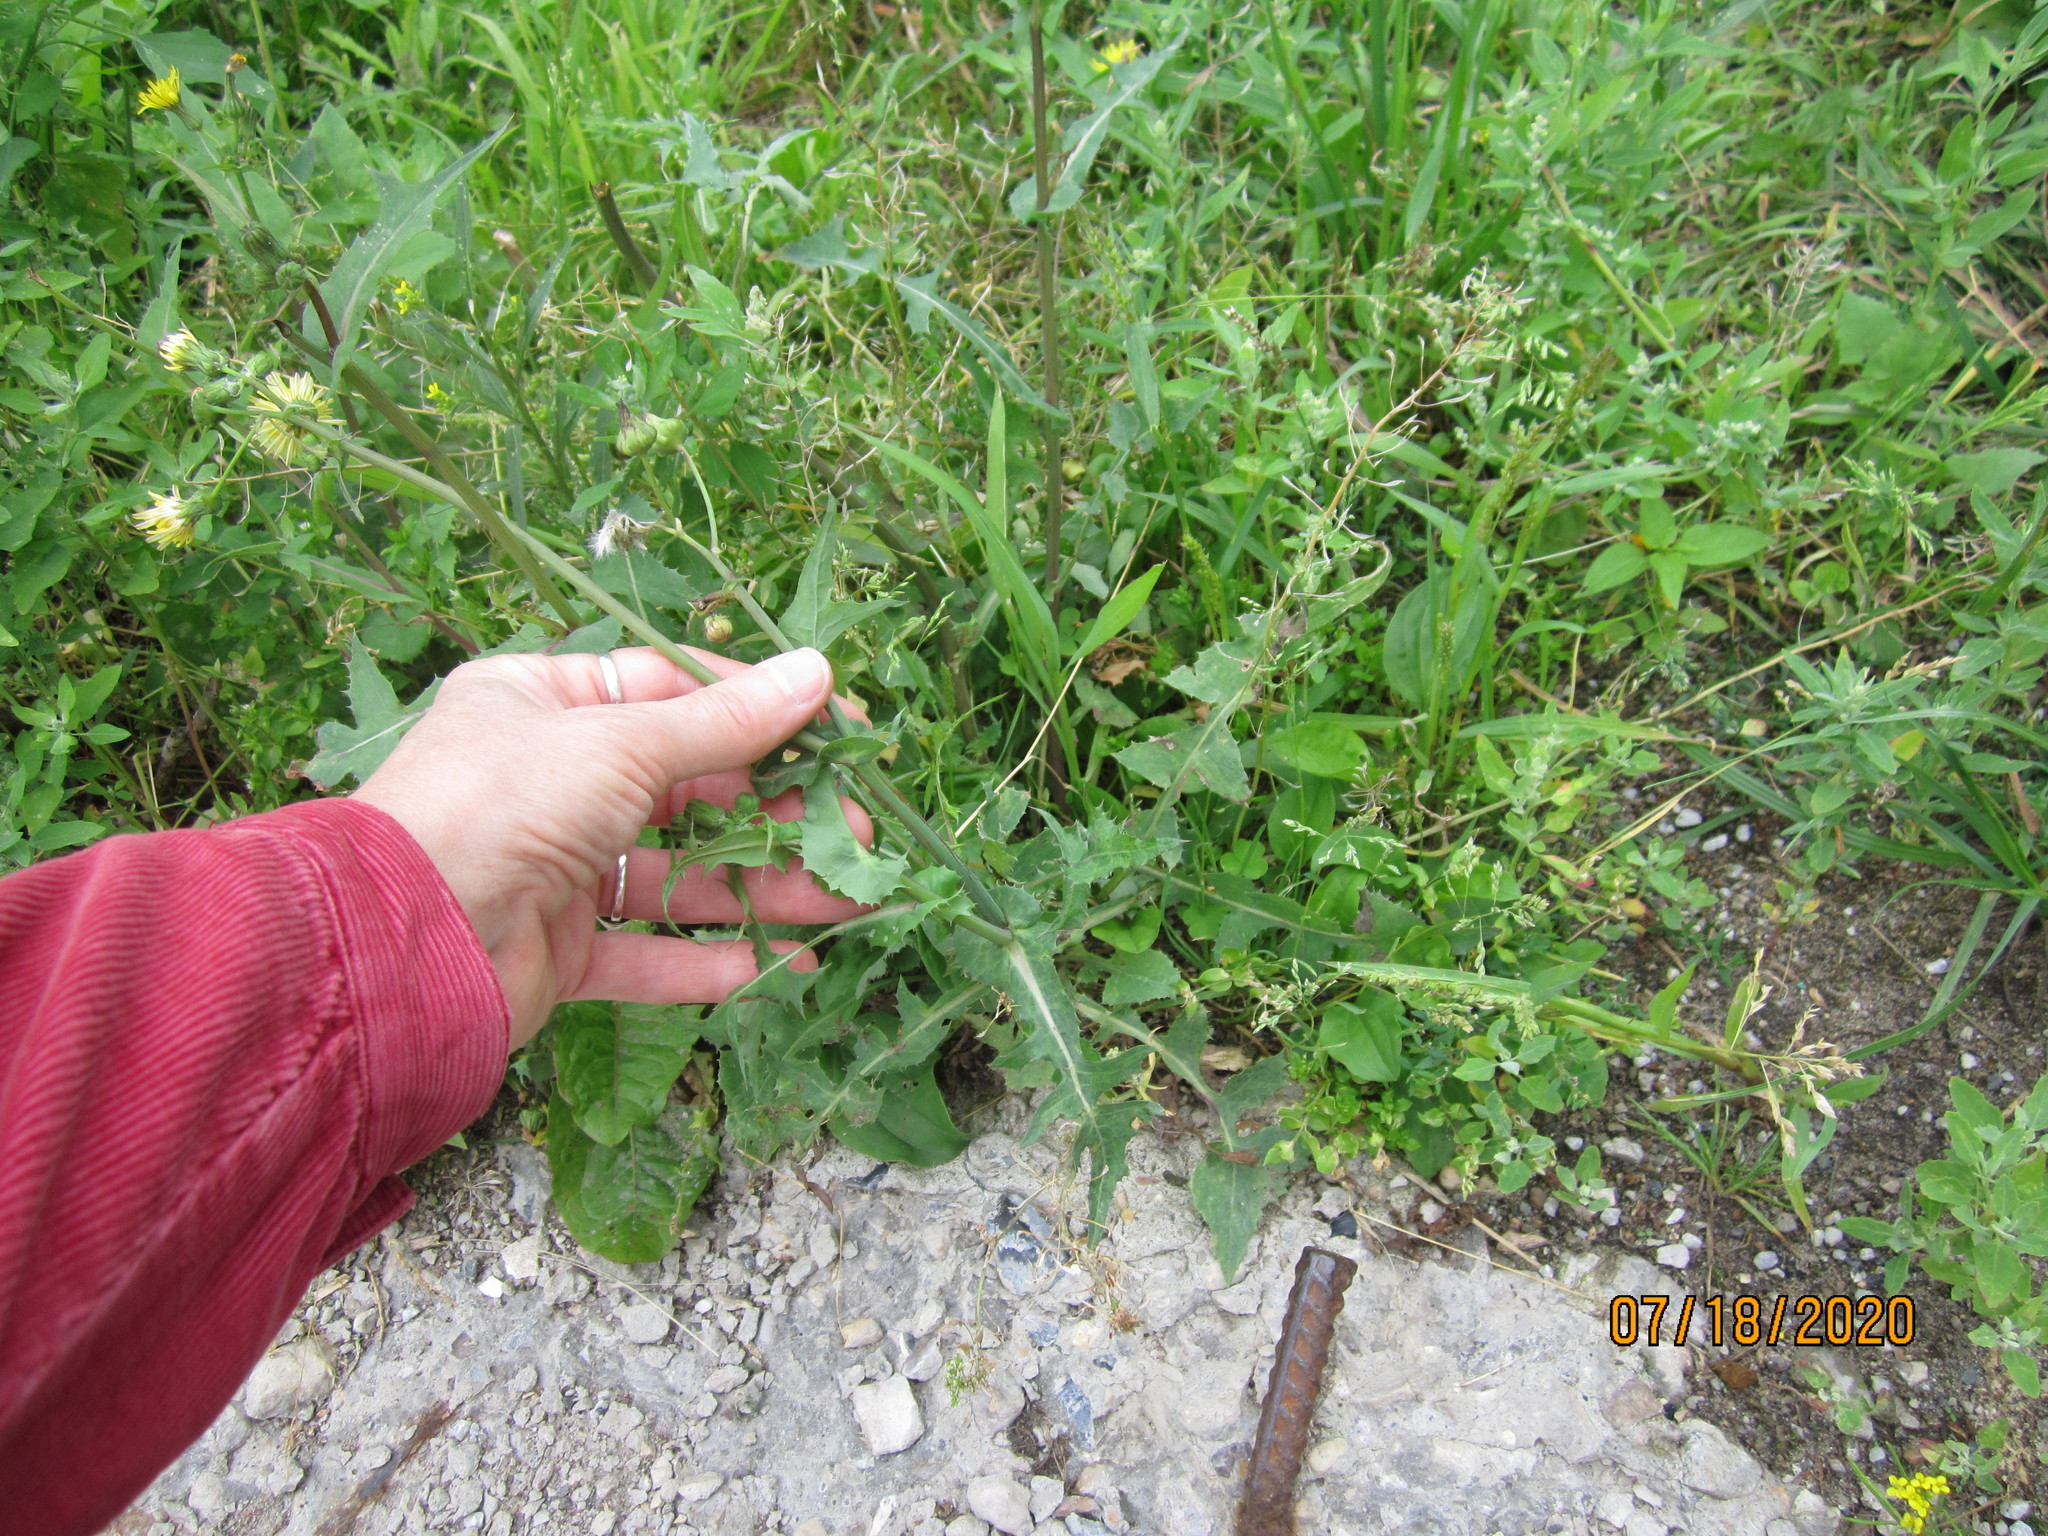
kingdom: Plantae
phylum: Tracheophyta
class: Magnoliopsida
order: Asterales
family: Asteraceae
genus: Sonchus
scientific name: Sonchus oleraceus
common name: Common sowthistle
